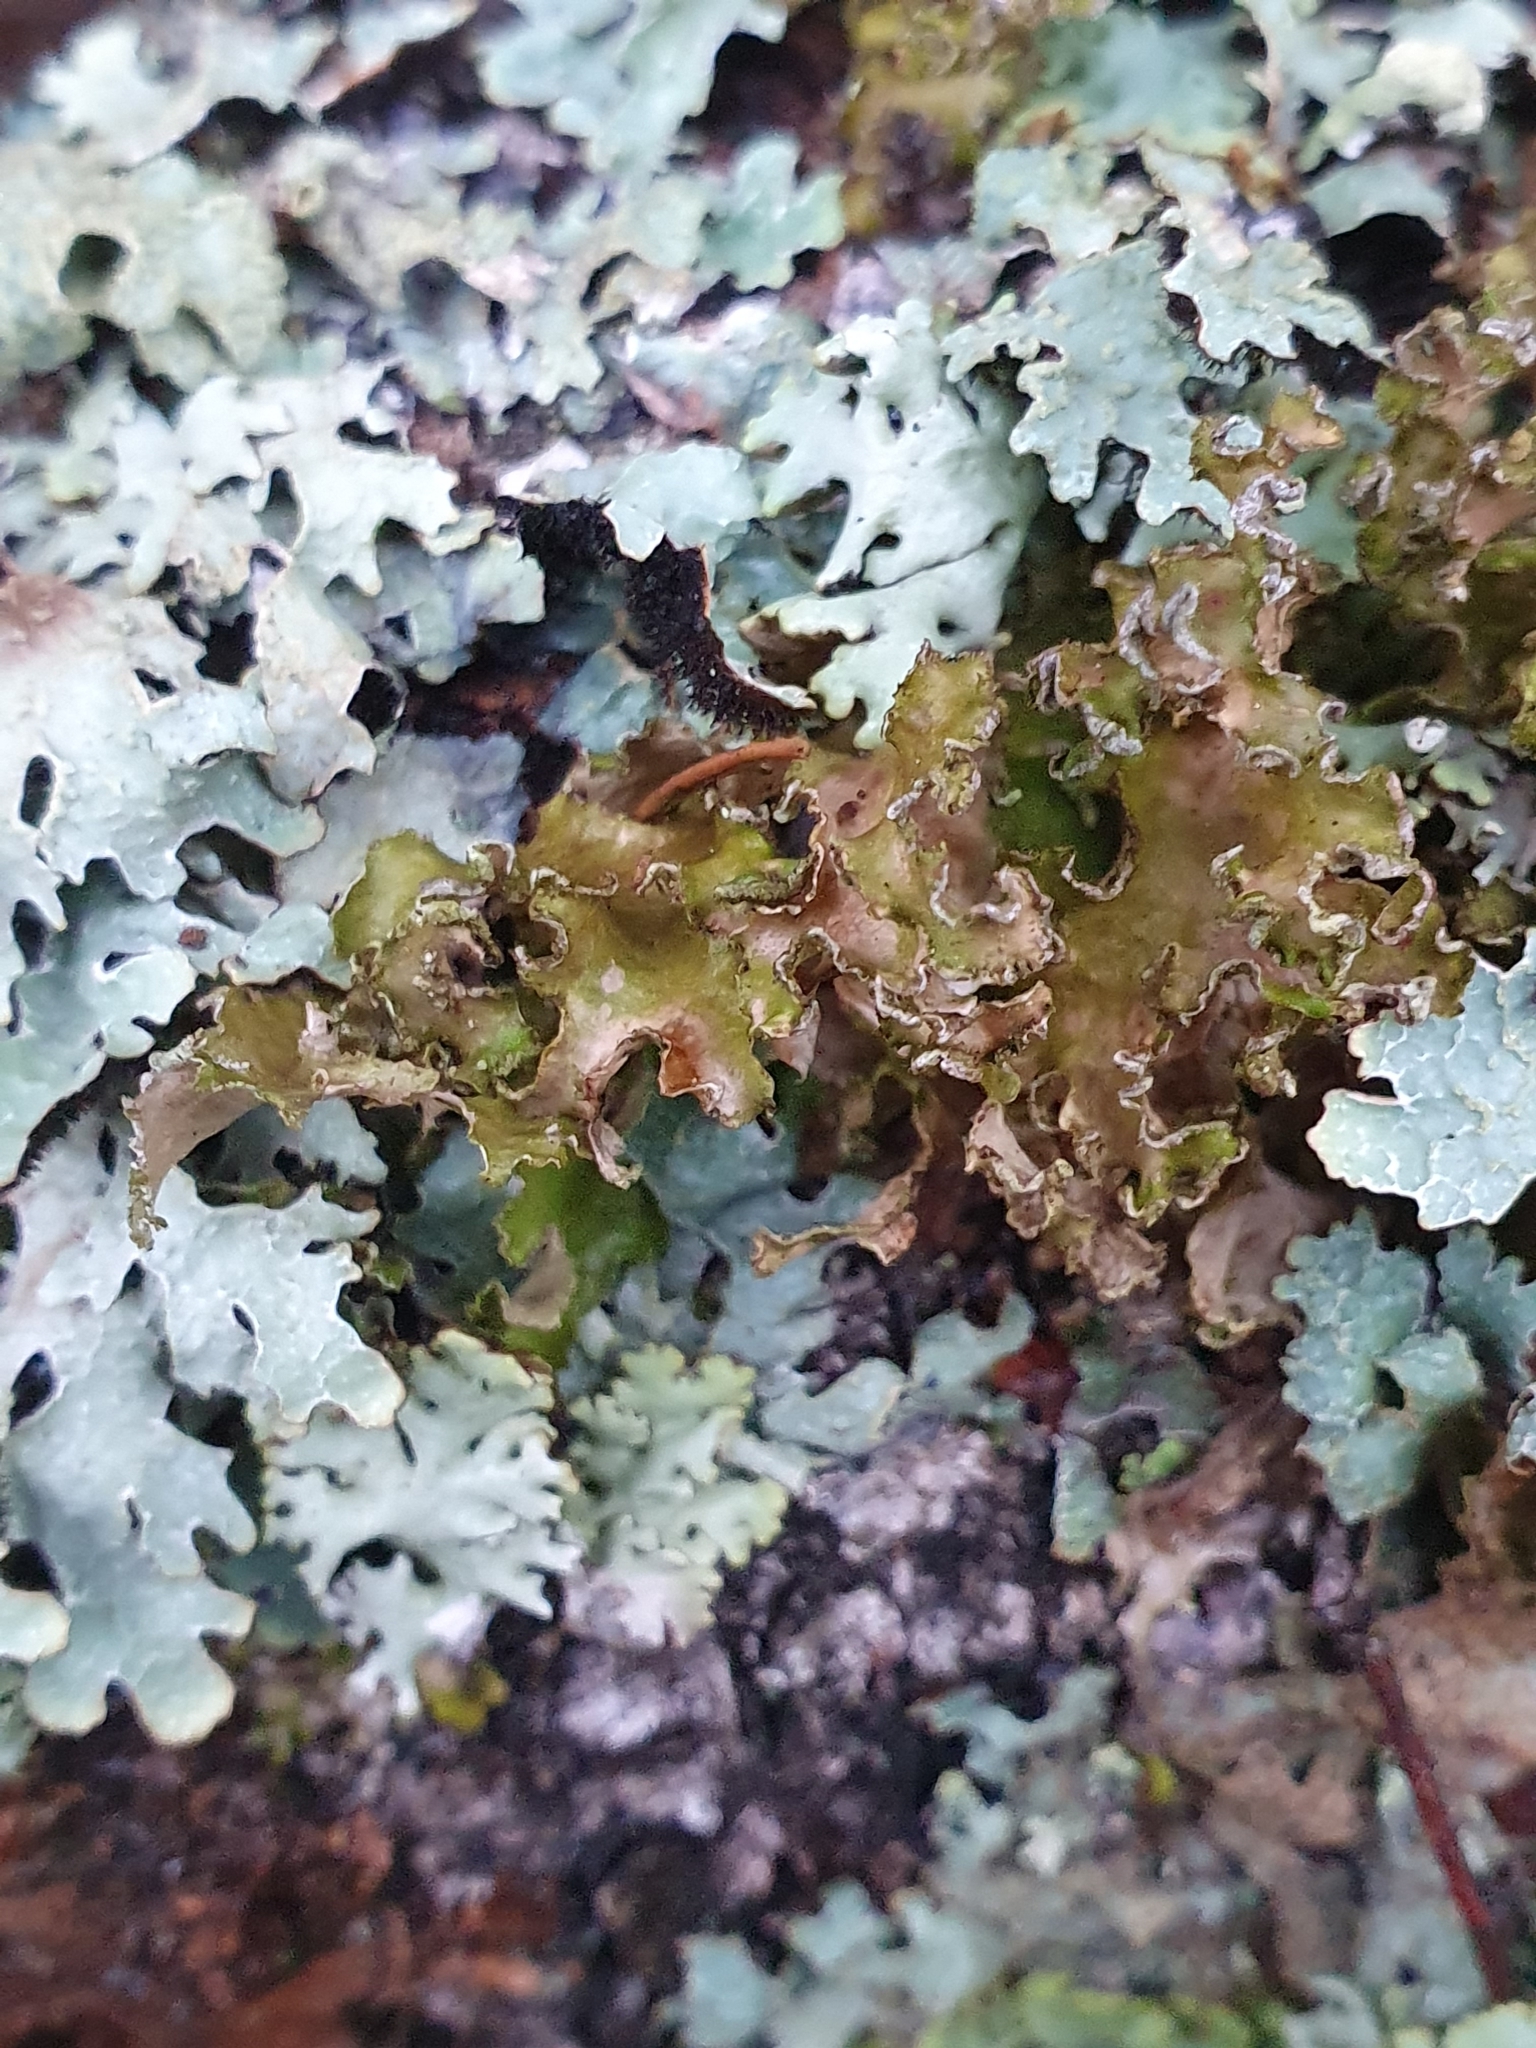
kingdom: Fungi
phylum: Ascomycota
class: Lecanoromycetes
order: Lecanorales
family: Parmeliaceae
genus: Nephromopsis
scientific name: Nephromopsis chlorophylla
